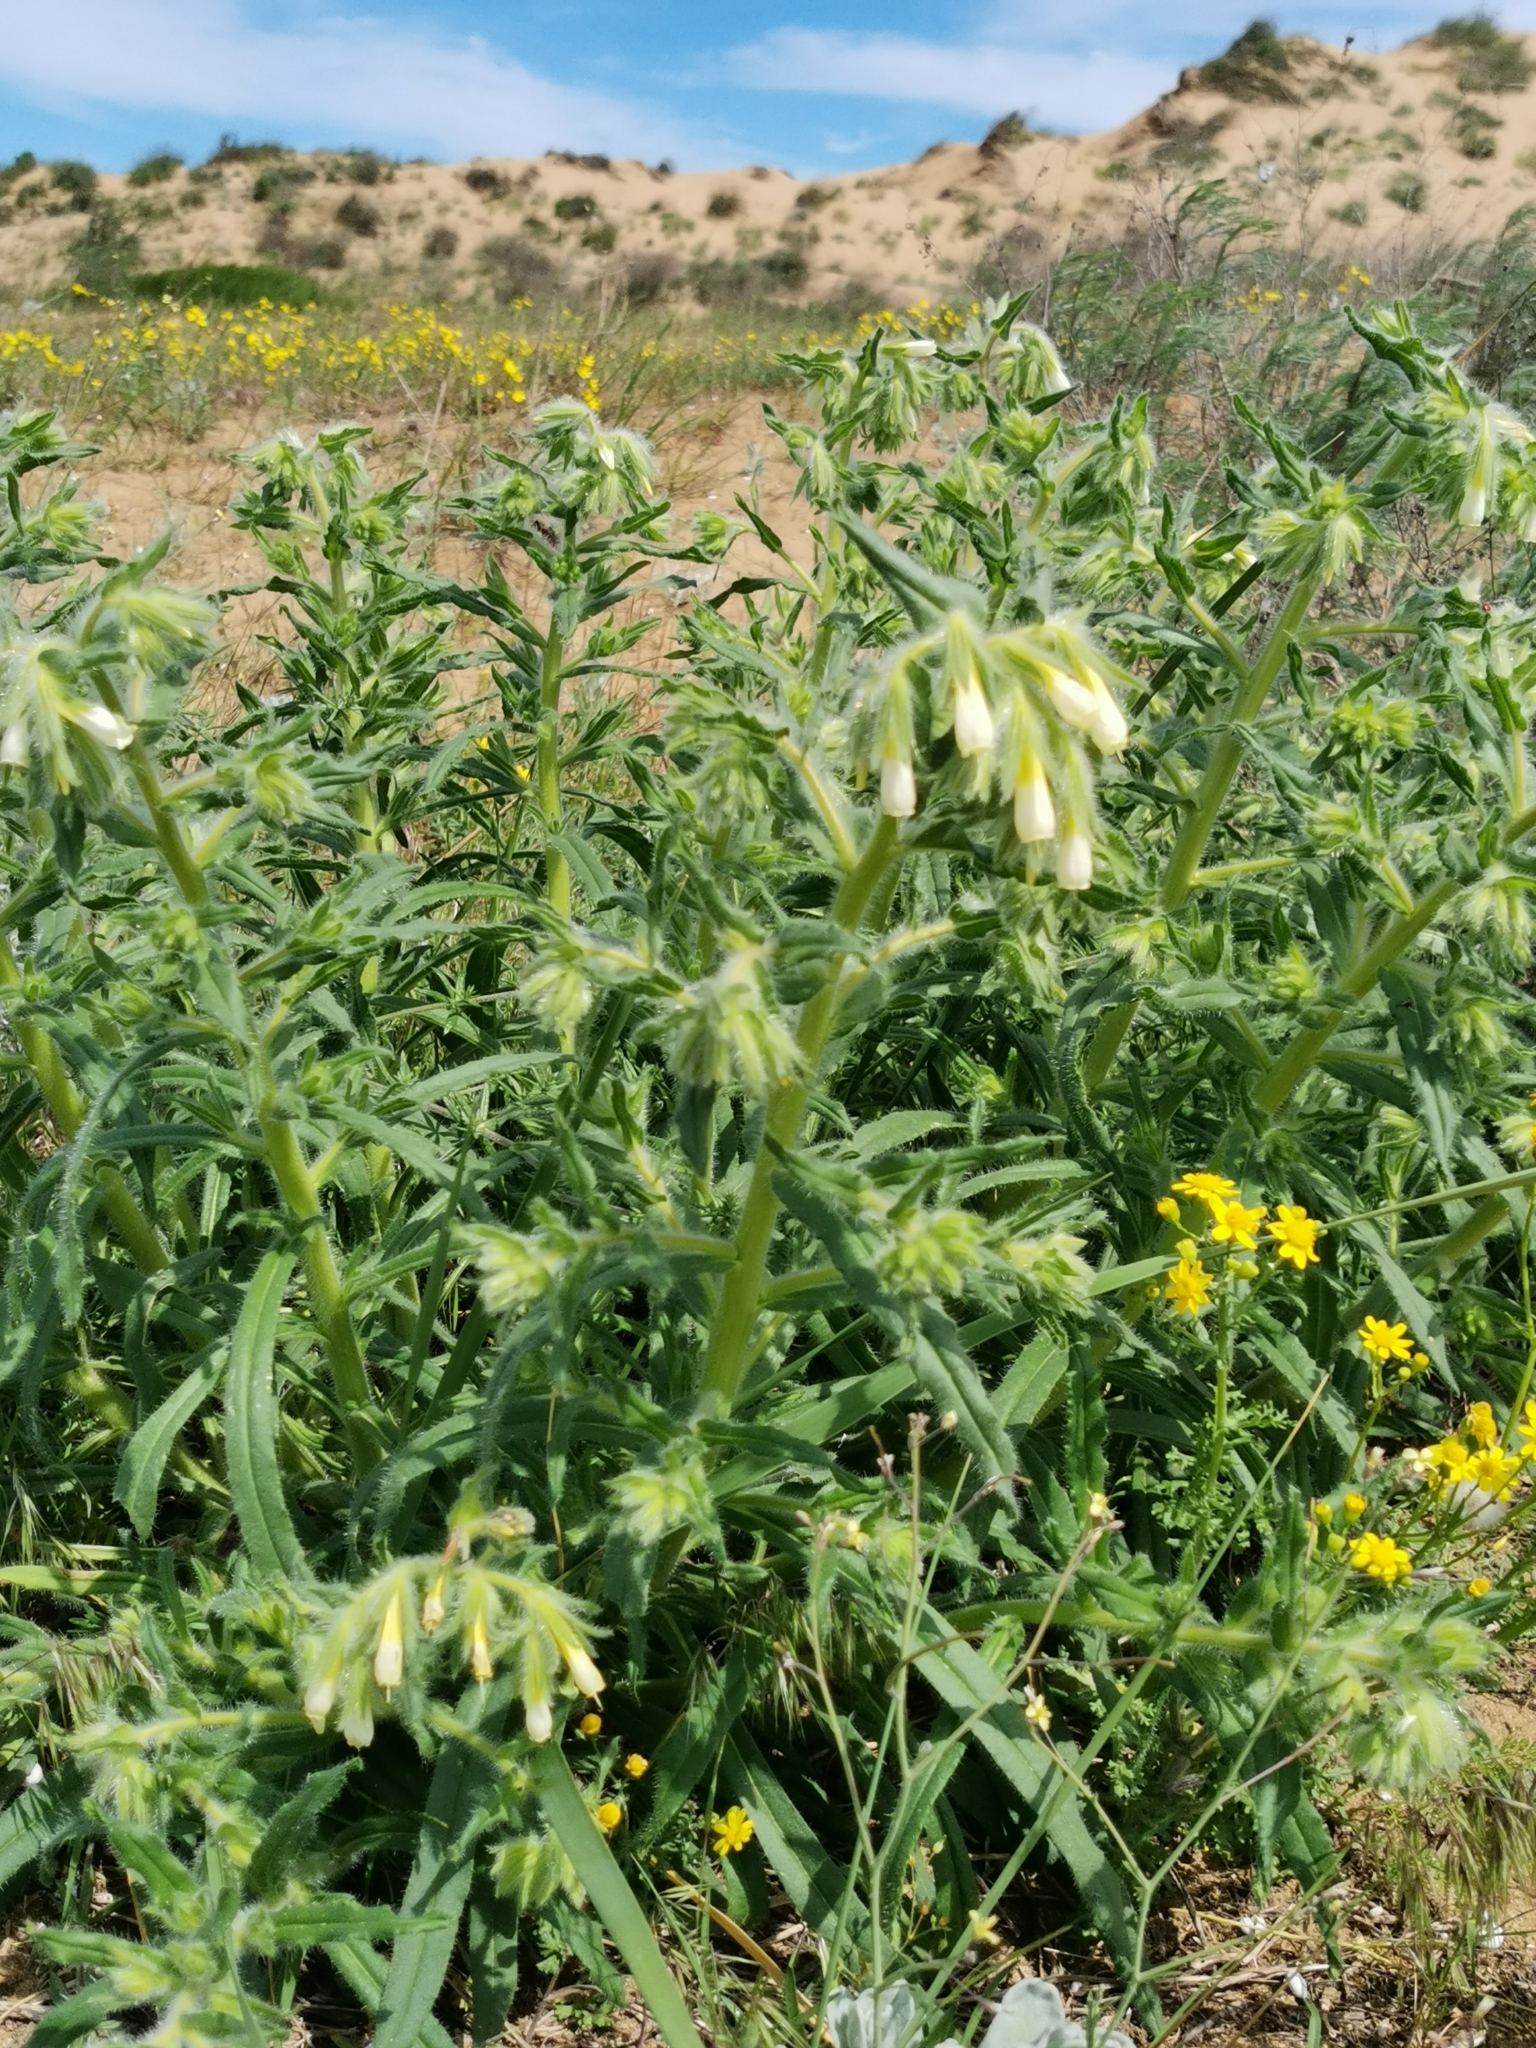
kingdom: Plantae
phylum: Tracheophyta
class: Magnoliopsida
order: Boraginales
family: Boraginaceae
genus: Onosma
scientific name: Onosma setosa
